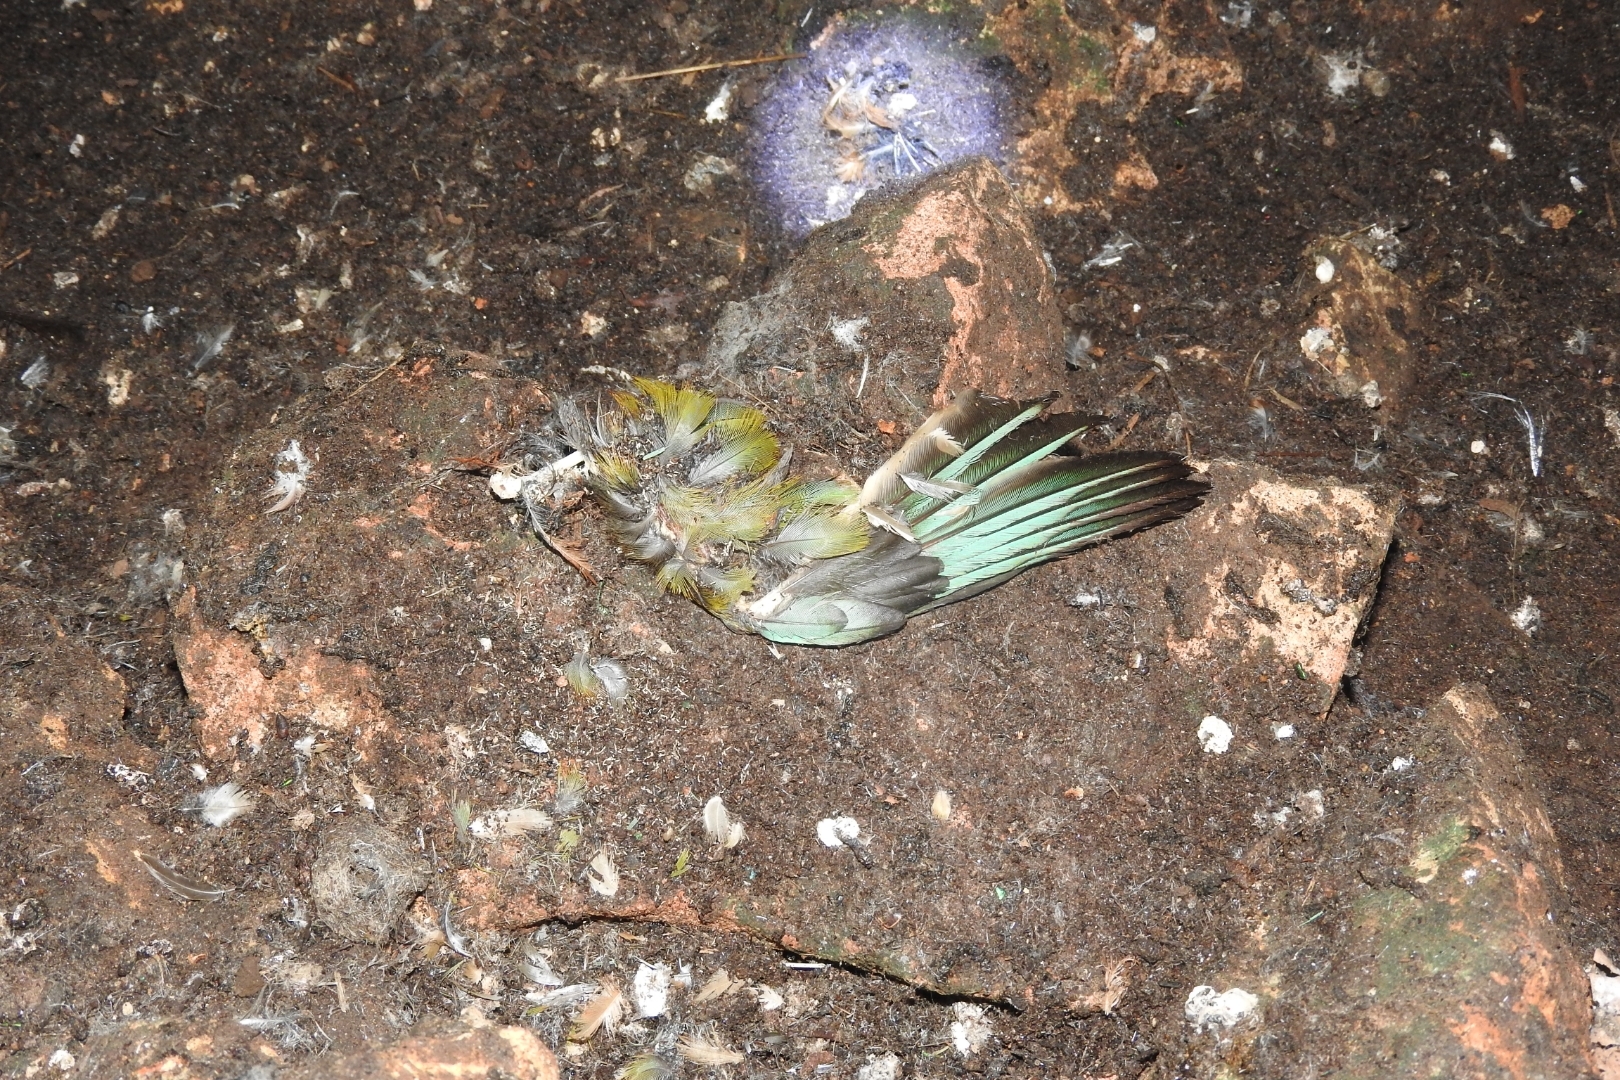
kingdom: Animalia
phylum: Chordata
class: Aves
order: Coraciiformes
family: Momotidae
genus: Eumomota
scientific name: Eumomota superciliosa
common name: Turquoise-browed motmot
